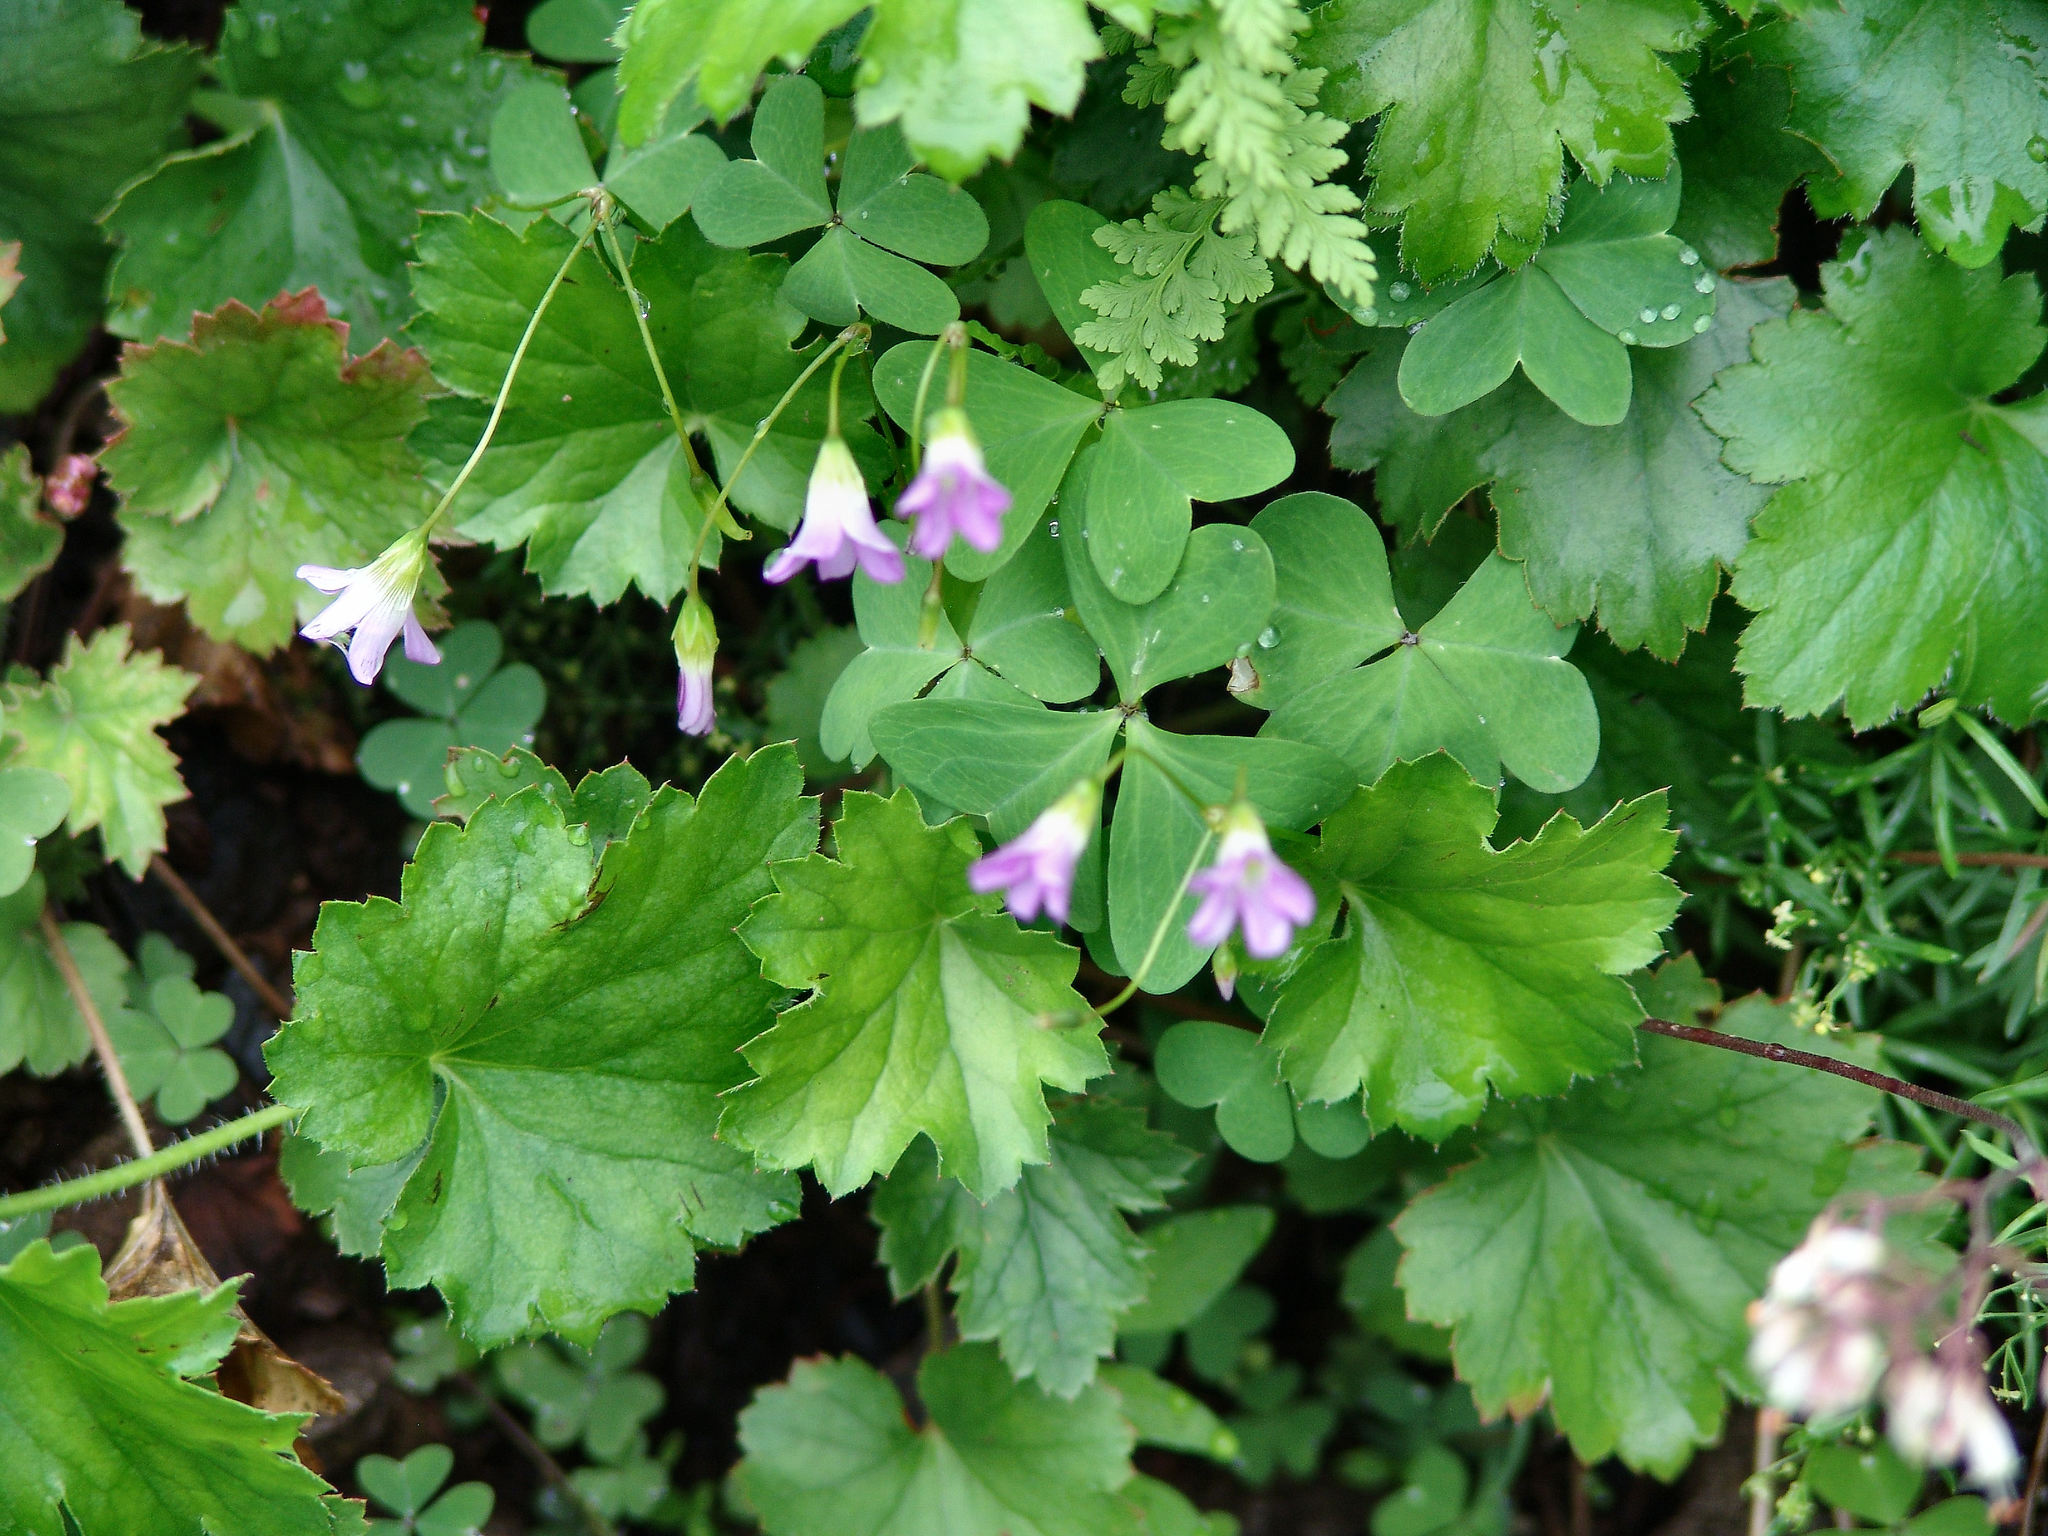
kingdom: Plantae
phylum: Tracheophyta
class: Magnoliopsida
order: Oxalidales
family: Oxalidaceae
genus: Oxalis
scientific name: Oxalis alpina
